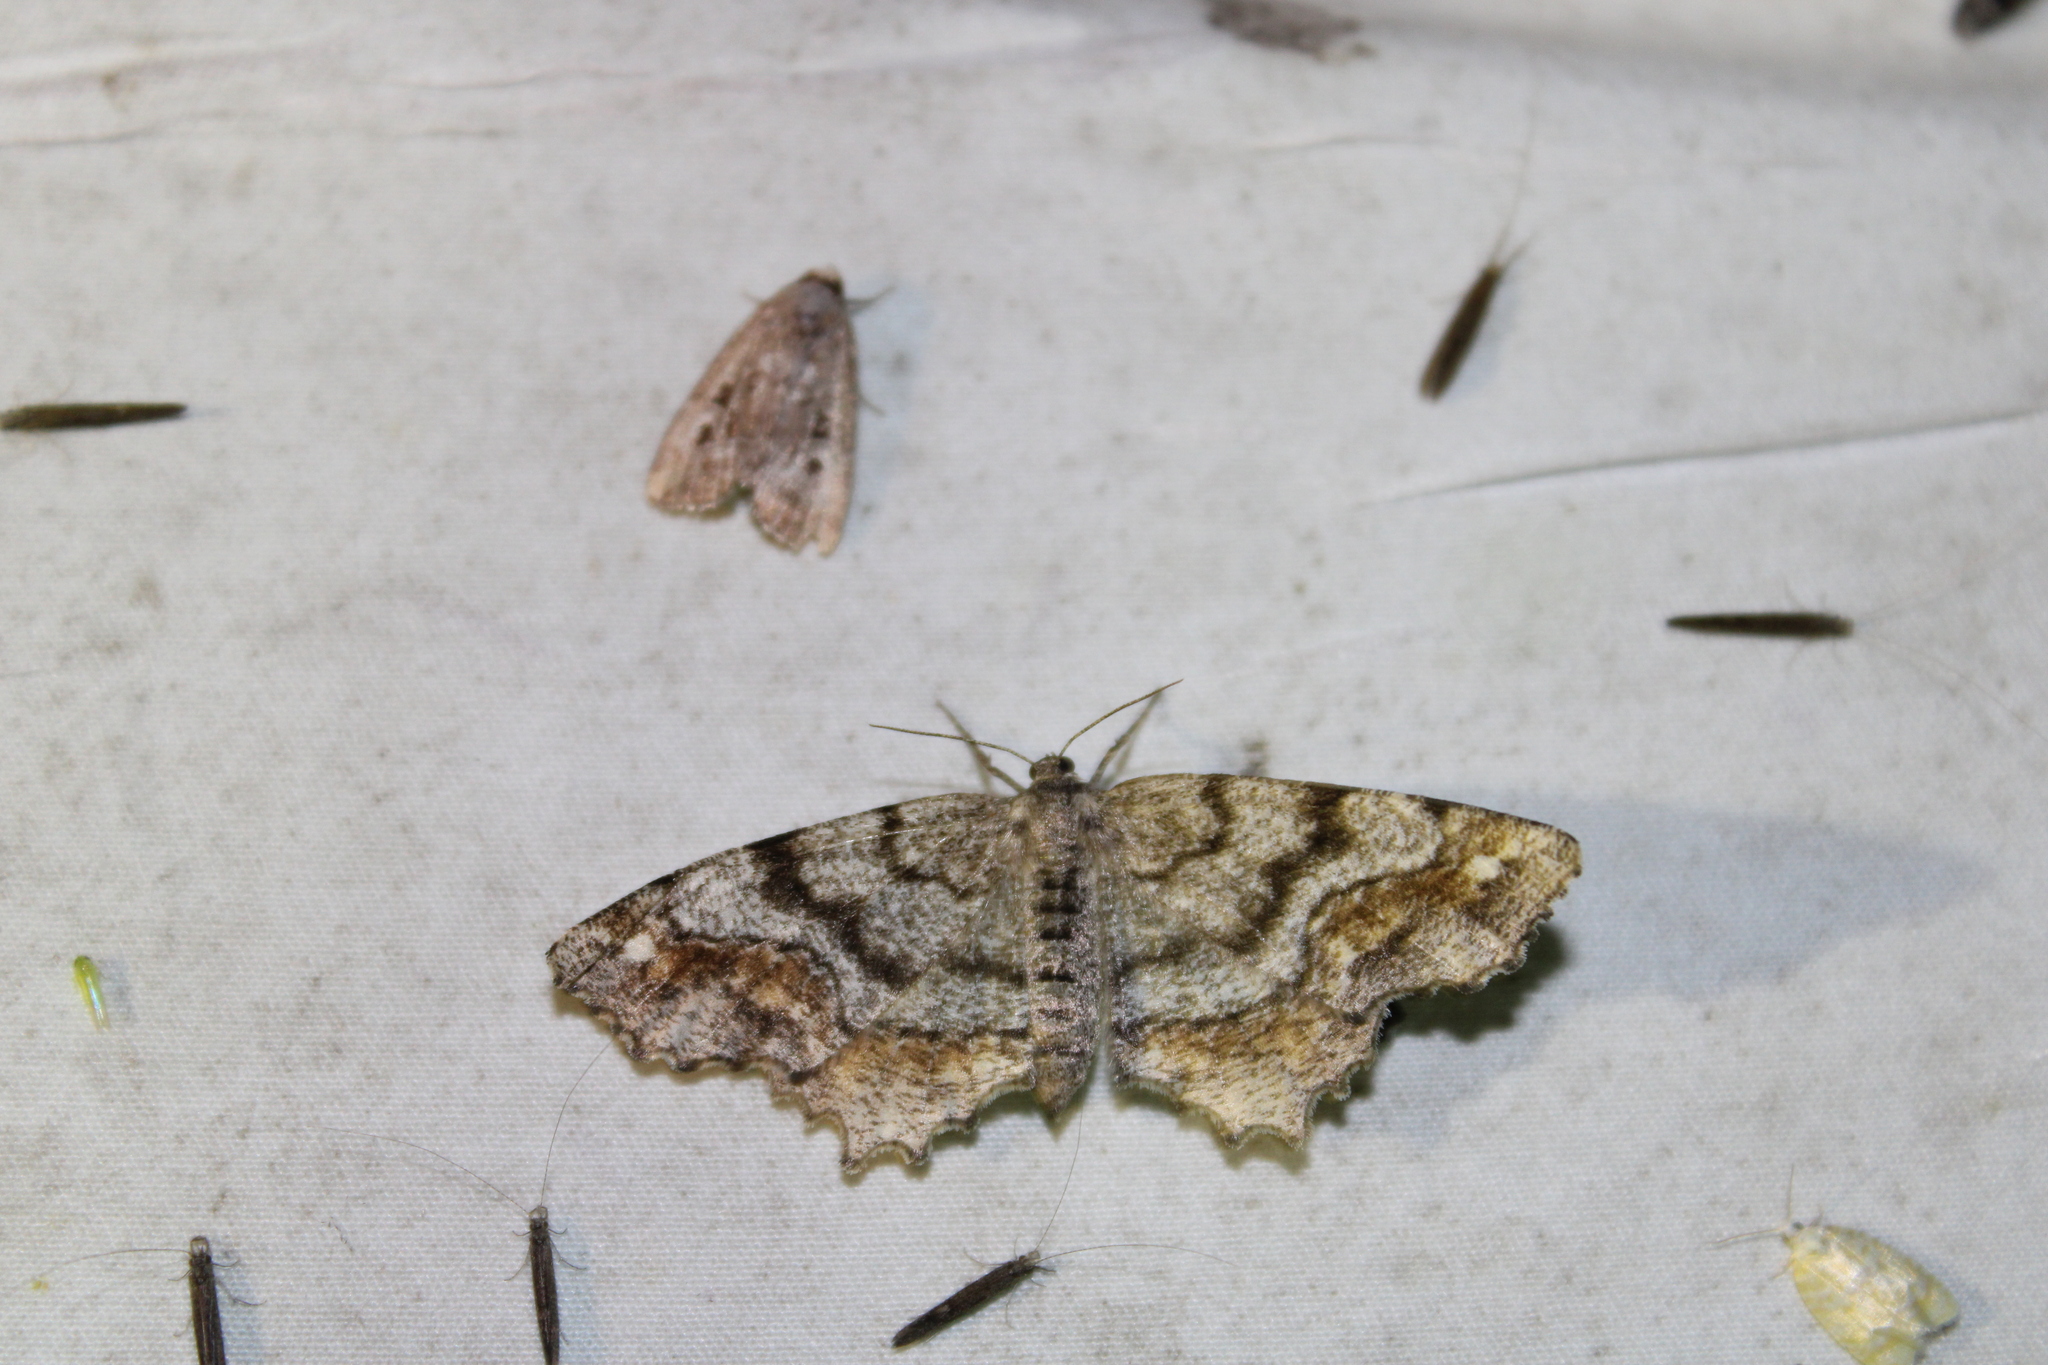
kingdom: Animalia
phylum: Arthropoda
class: Insecta
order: Lepidoptera
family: Geometridae
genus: Hypagyrtis
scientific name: Hypagyrtis unipunctata
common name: One-spotted variant
